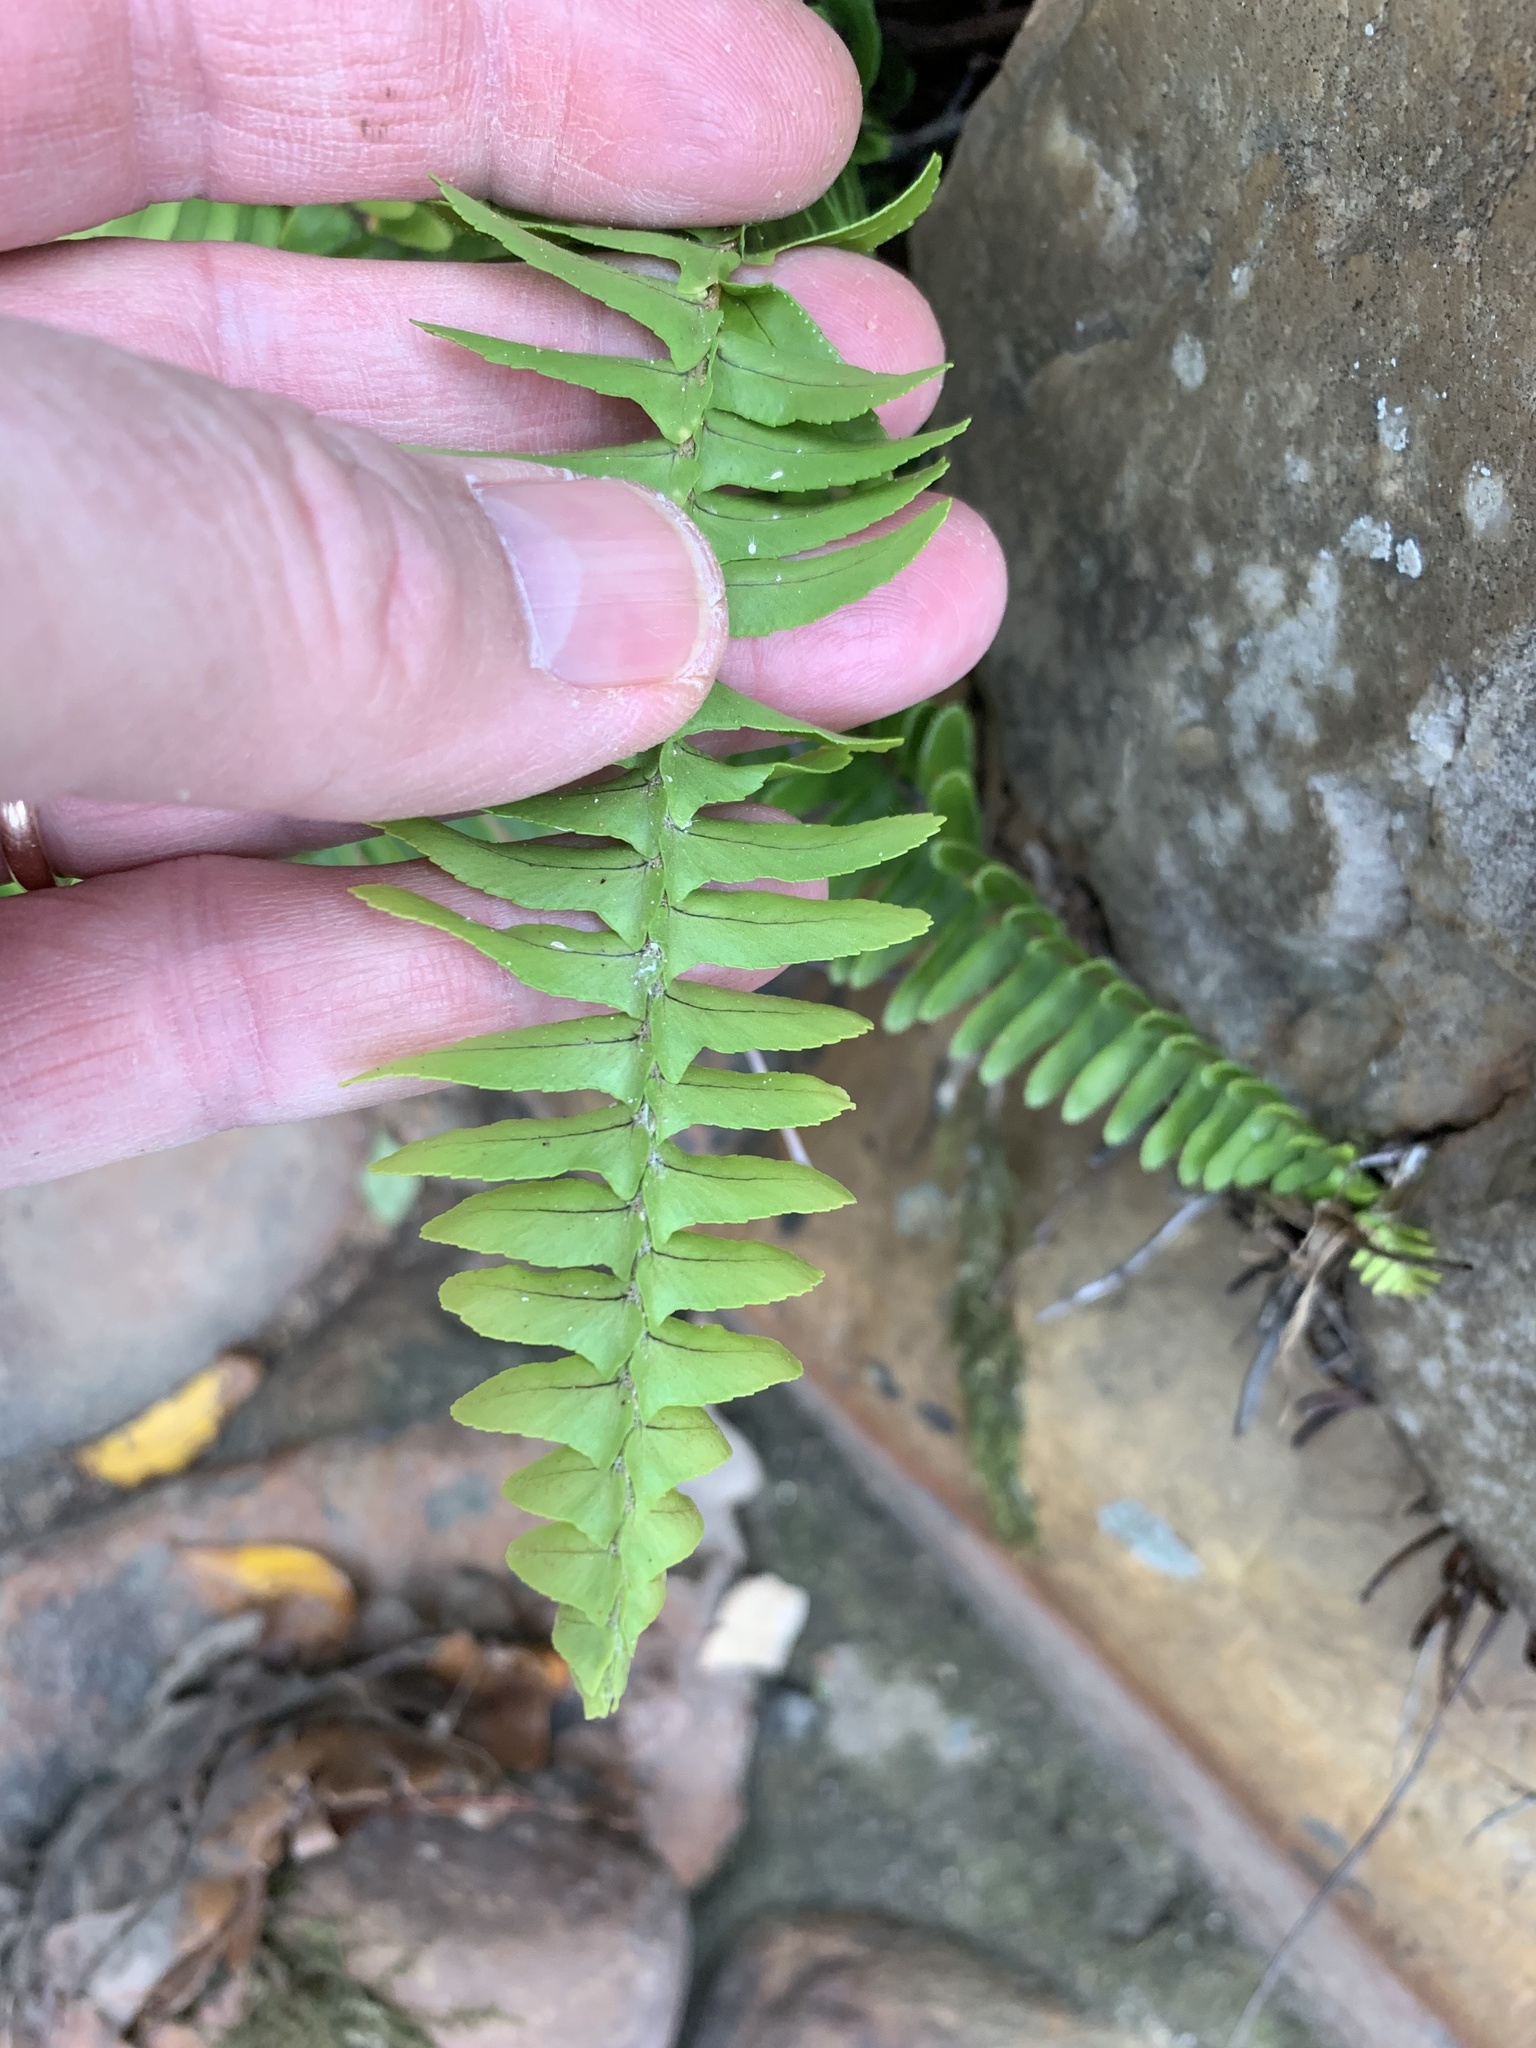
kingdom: Plantae
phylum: Tracheophyta
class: Polypodiopsida
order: Polypodiales
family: Nephrolepidaceae
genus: Nephrolepis
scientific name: Nephrolepis cordifolia
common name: Narrow swordfern
